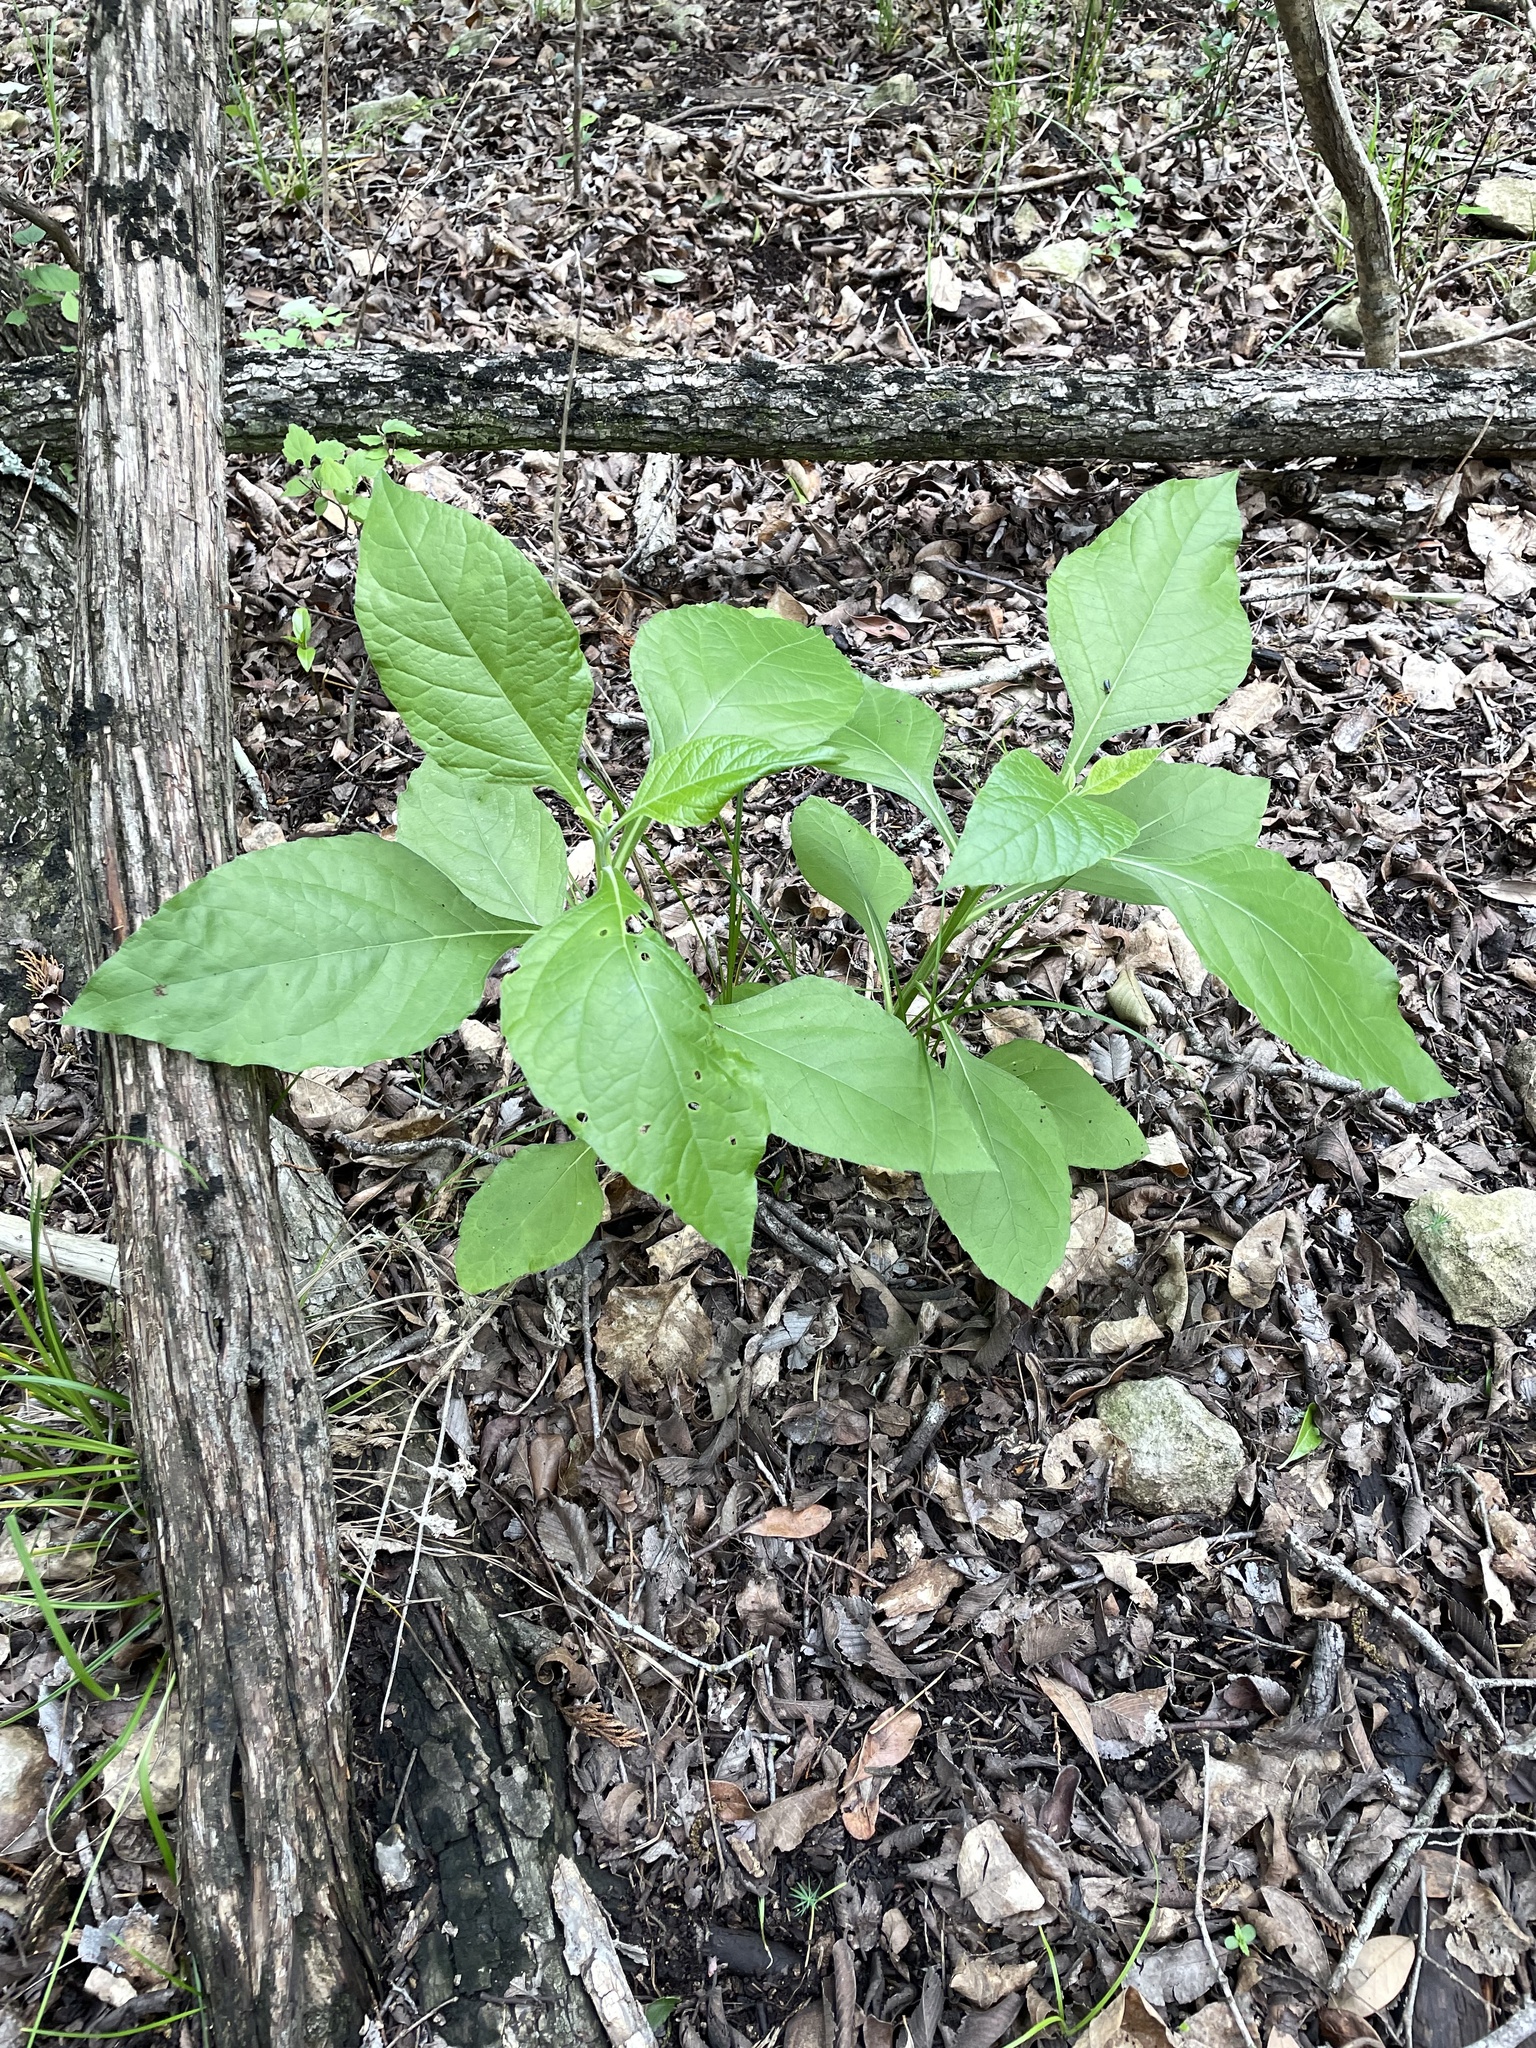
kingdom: Plantae
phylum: Tracheophyta
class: Magnoliopsida
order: Asterales
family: Asteraceae
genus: Verbesina
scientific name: Verbesina virginica
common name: Frostweed
